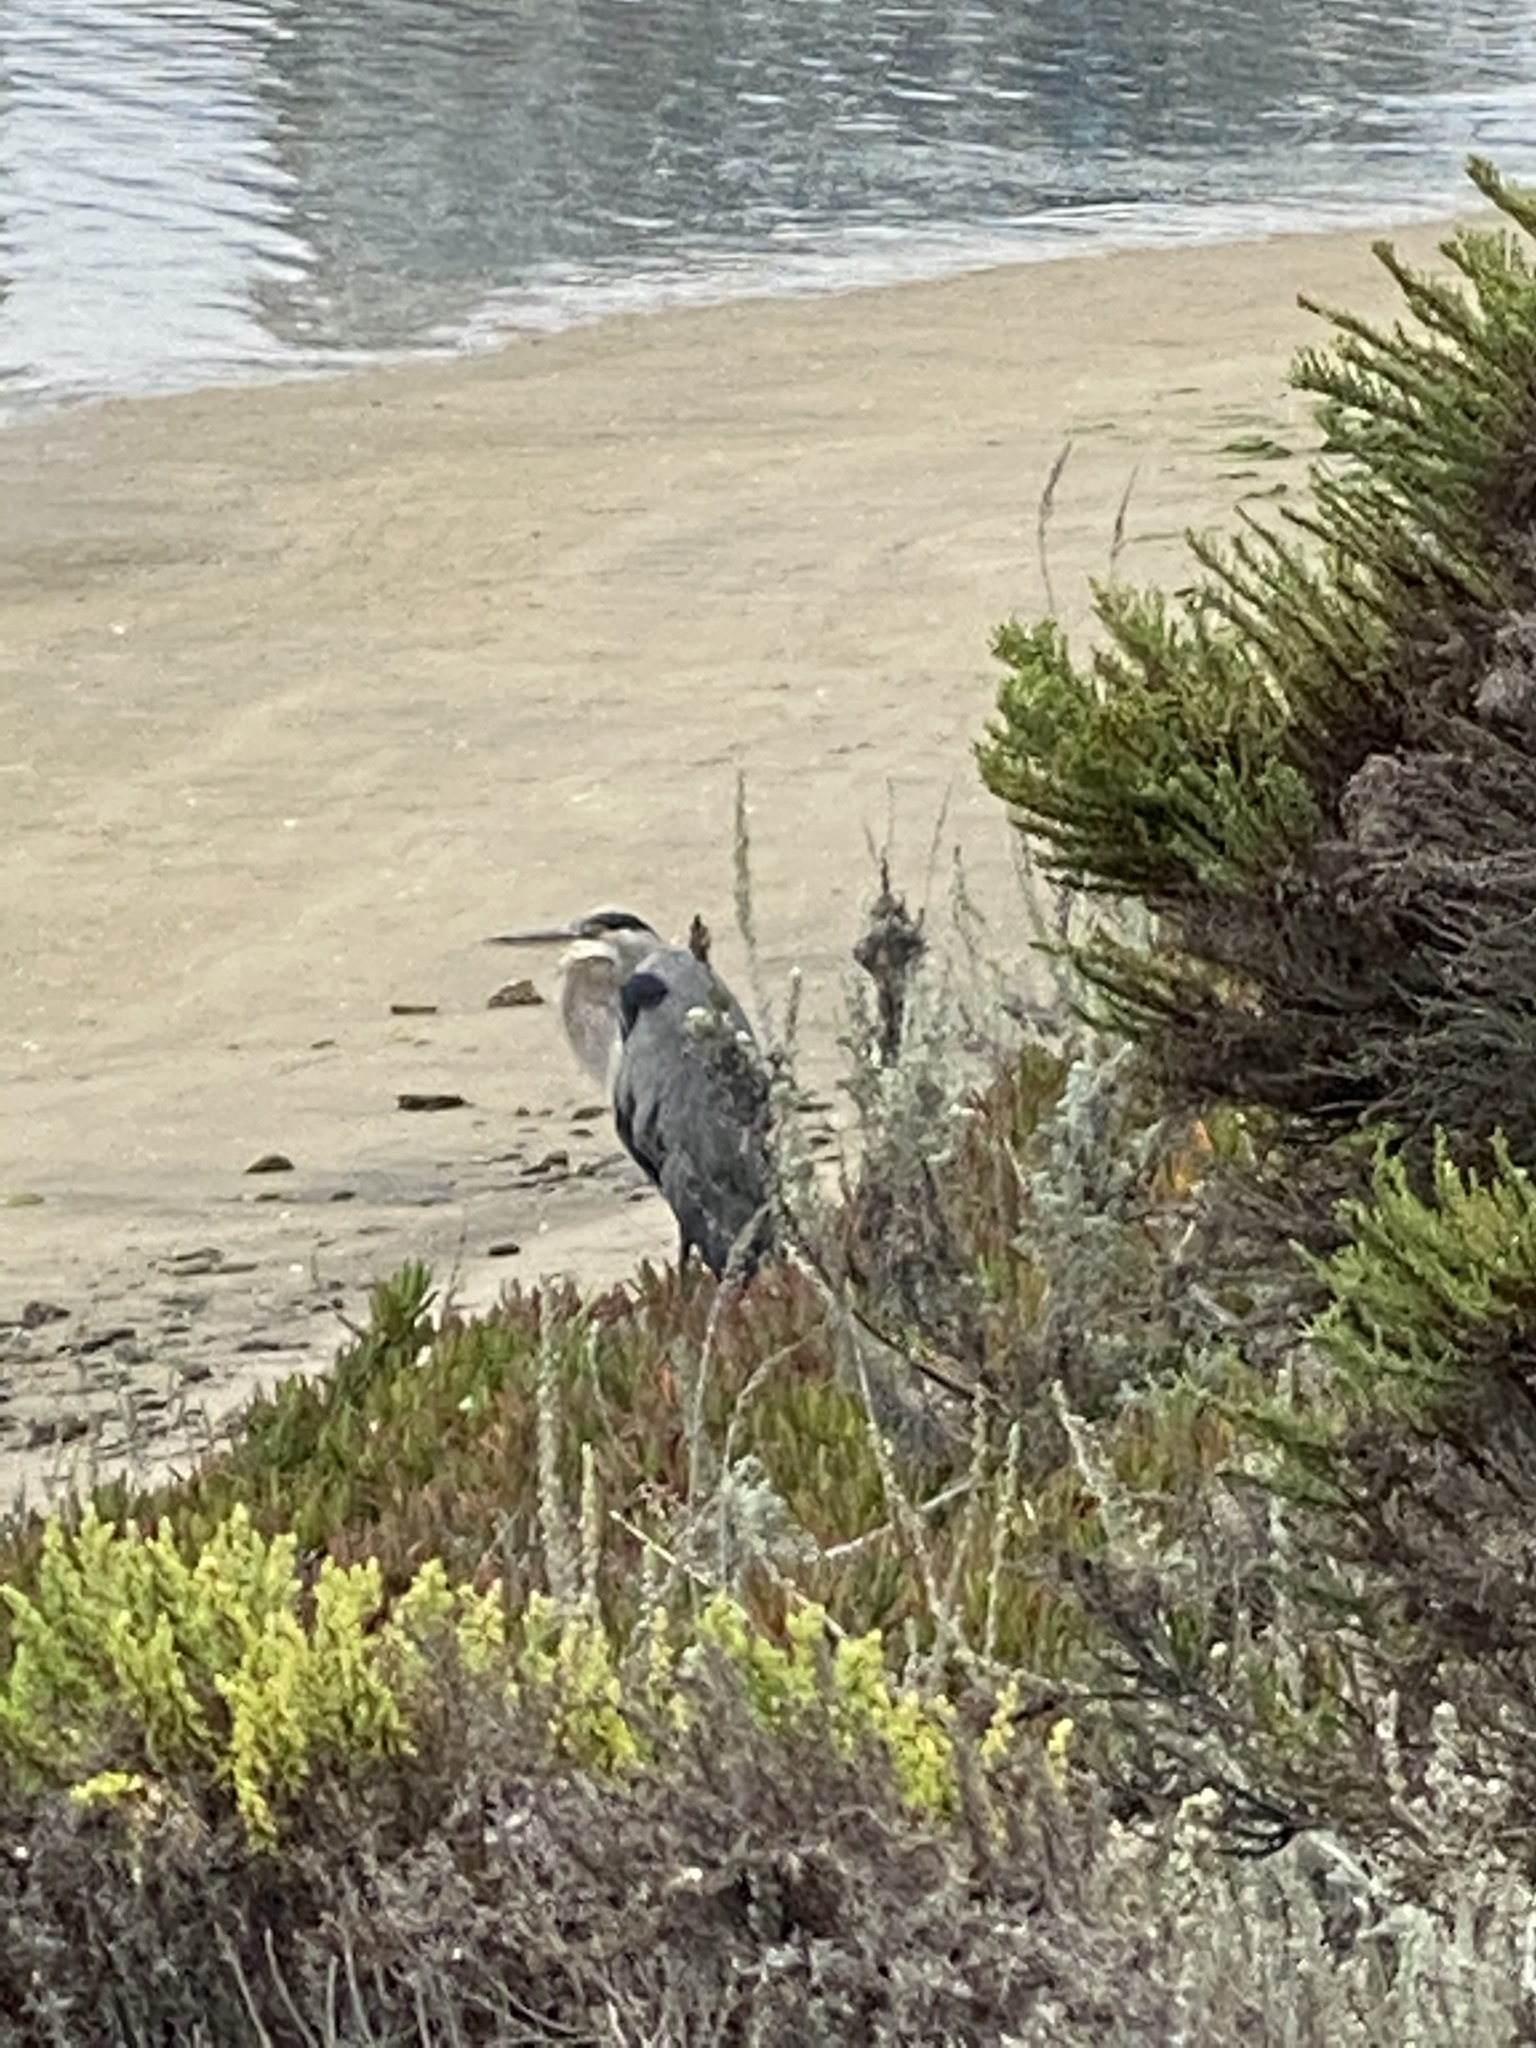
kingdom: Animalia
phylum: Chordata
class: Aves
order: Pelecaniformes
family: Ardeidae
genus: Ardea
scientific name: Ardea herodias
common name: Great blue heron
